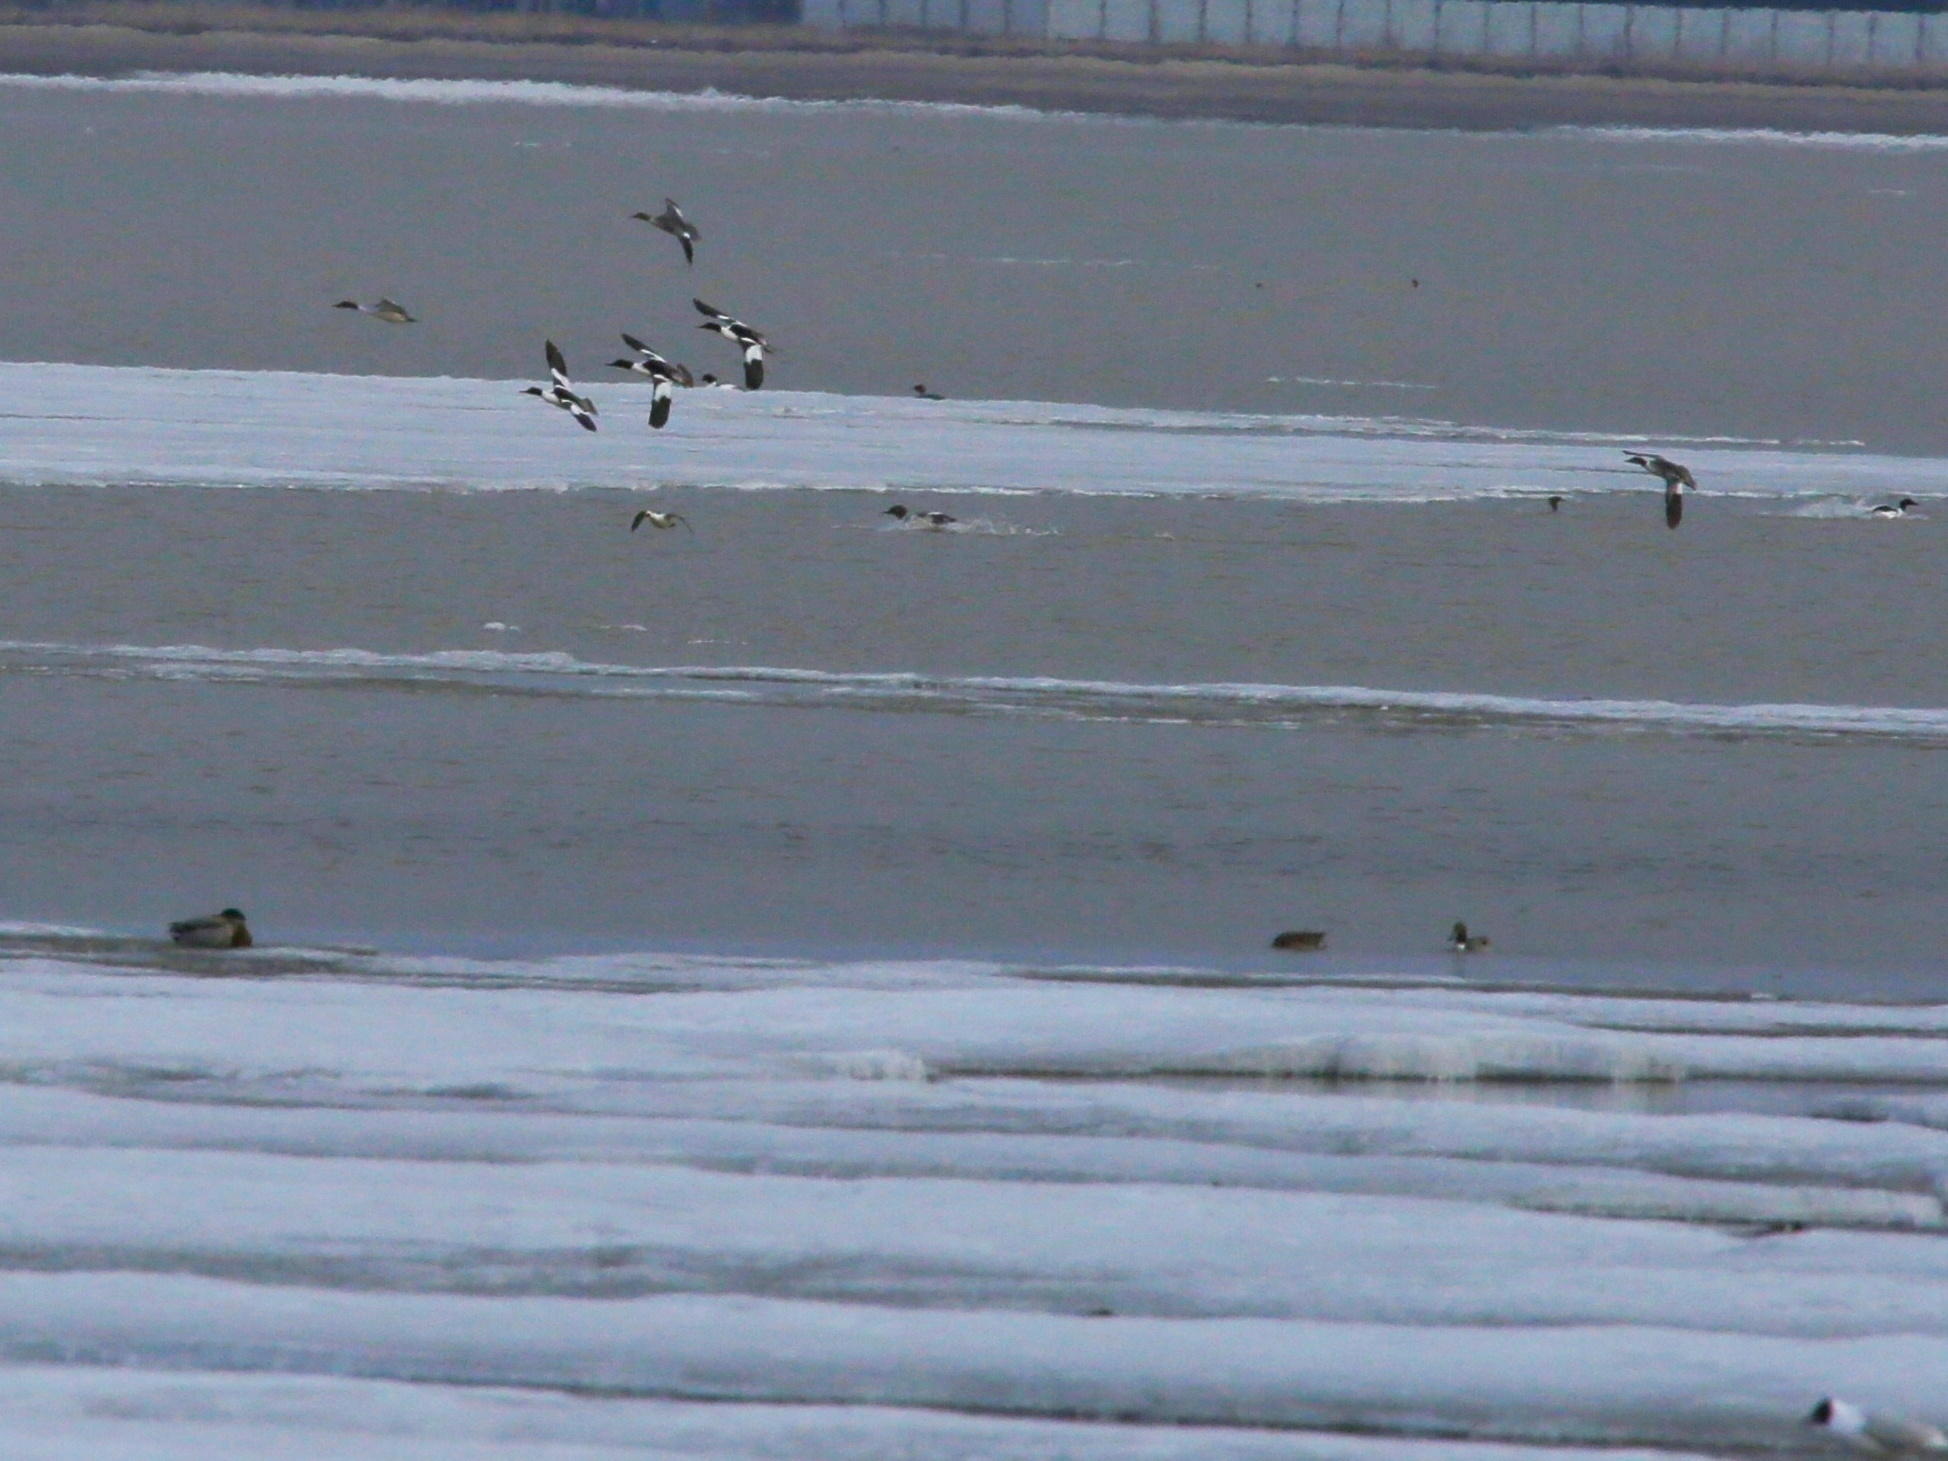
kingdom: Animalia
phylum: Chordata
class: Aves
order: Anseriformes
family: Anatidae
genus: Mergus
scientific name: Mergus merganser
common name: Common merganser
